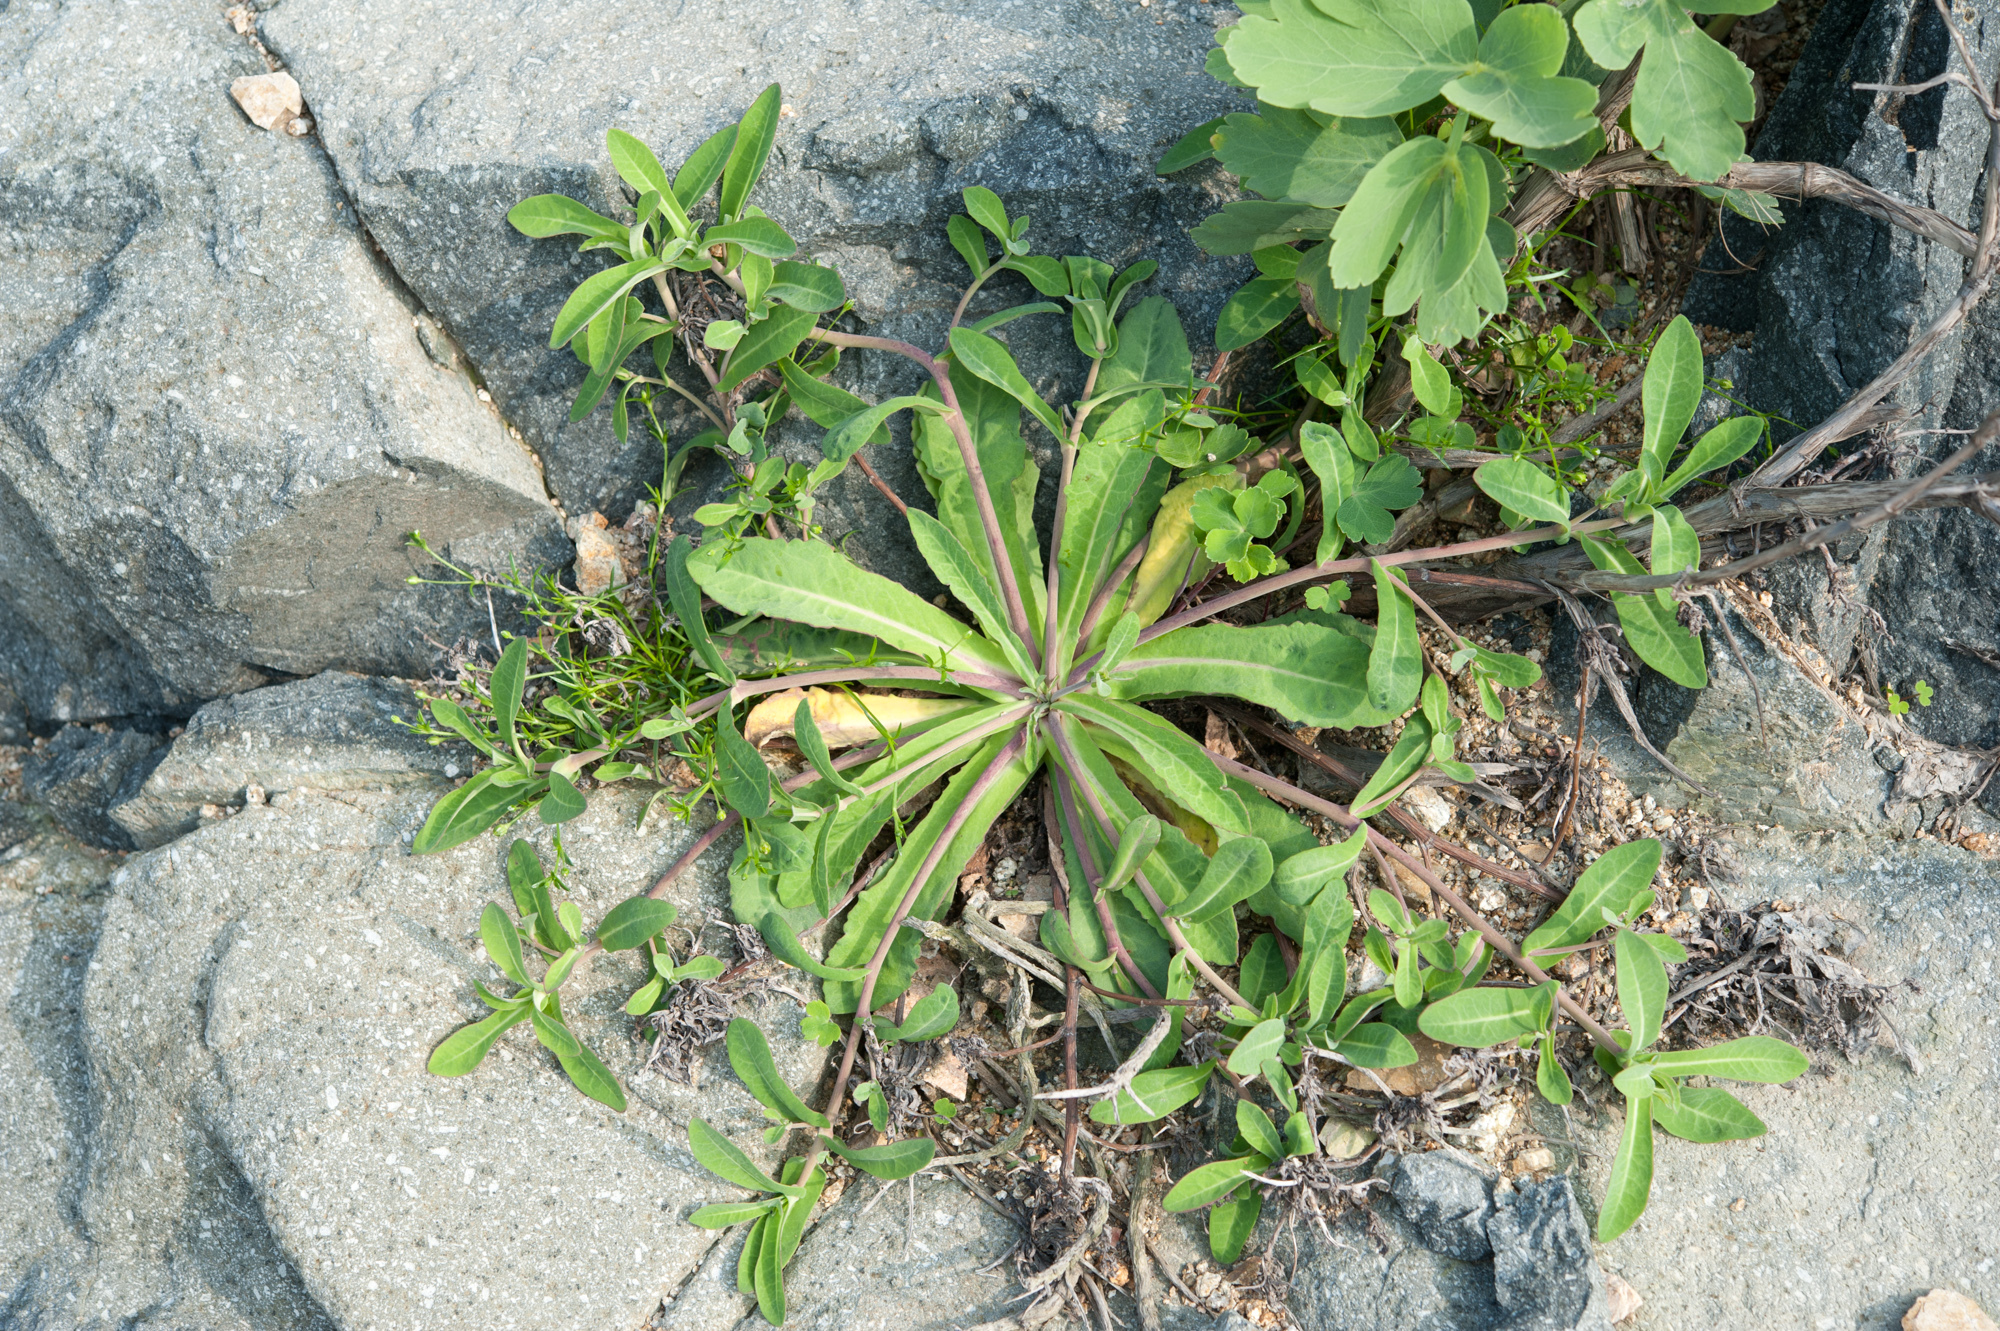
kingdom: Plantae
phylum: Tracheophyta
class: Magnoliopsida
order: Asterales
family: Asteraceae
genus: Crepidiastrum
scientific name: Crepidiastrum lanceolatum
